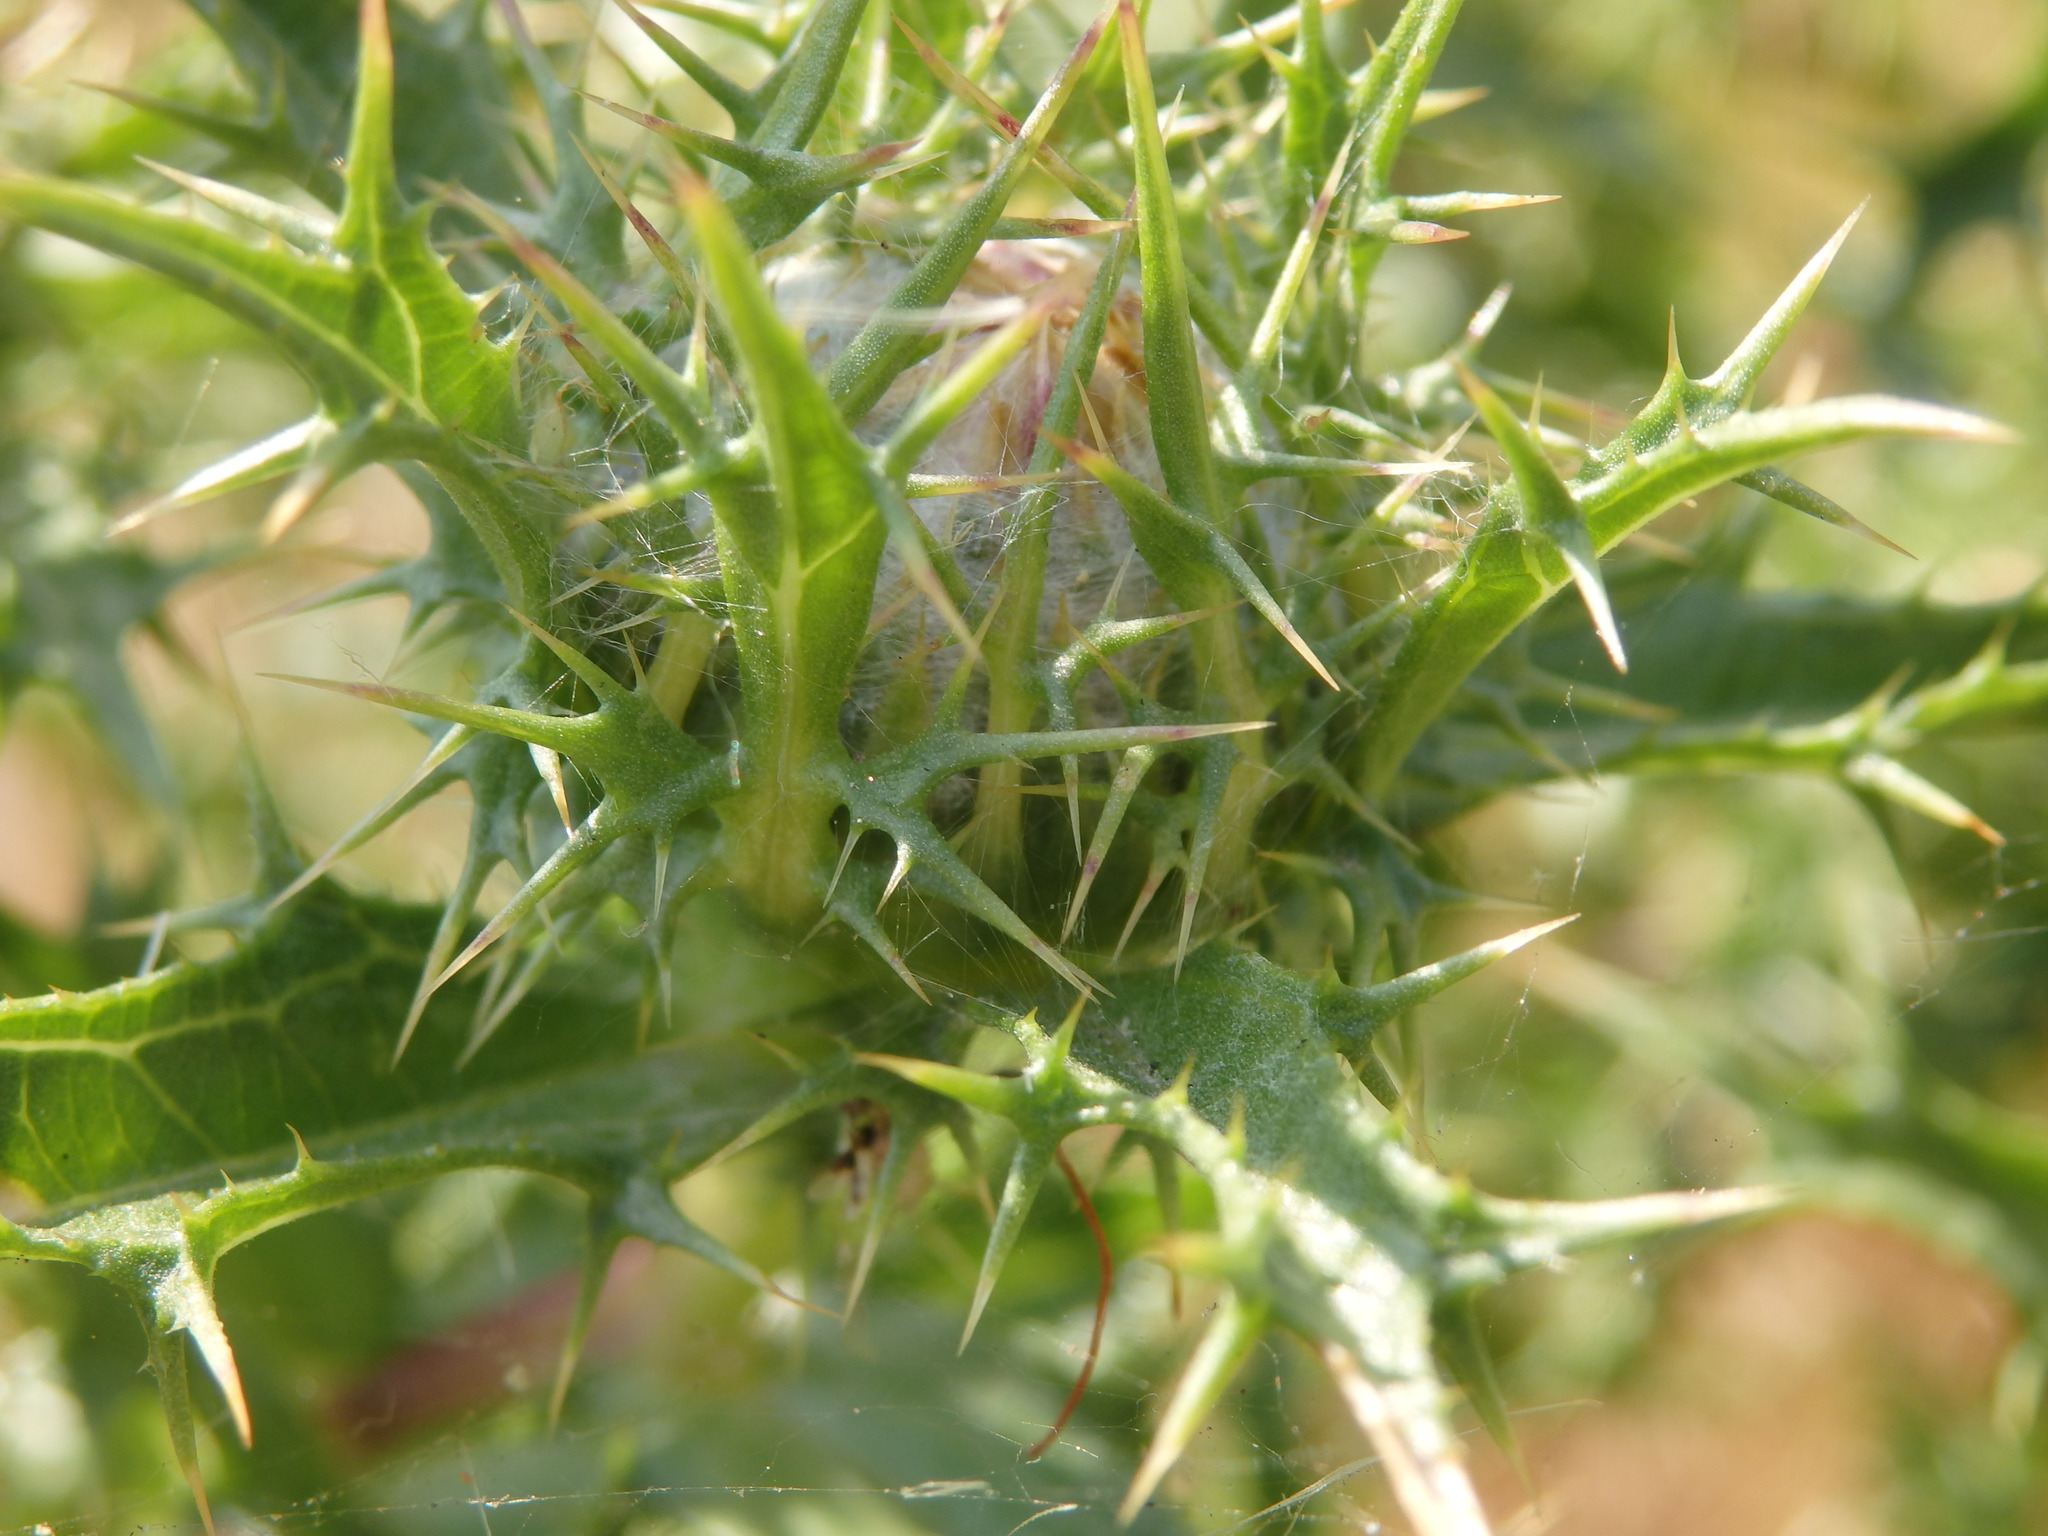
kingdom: Plantae
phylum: Tracheophyta
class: Magnoliopsida
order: Asterales
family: Asteraceae
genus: Carlina
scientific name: Carlina hispanica
